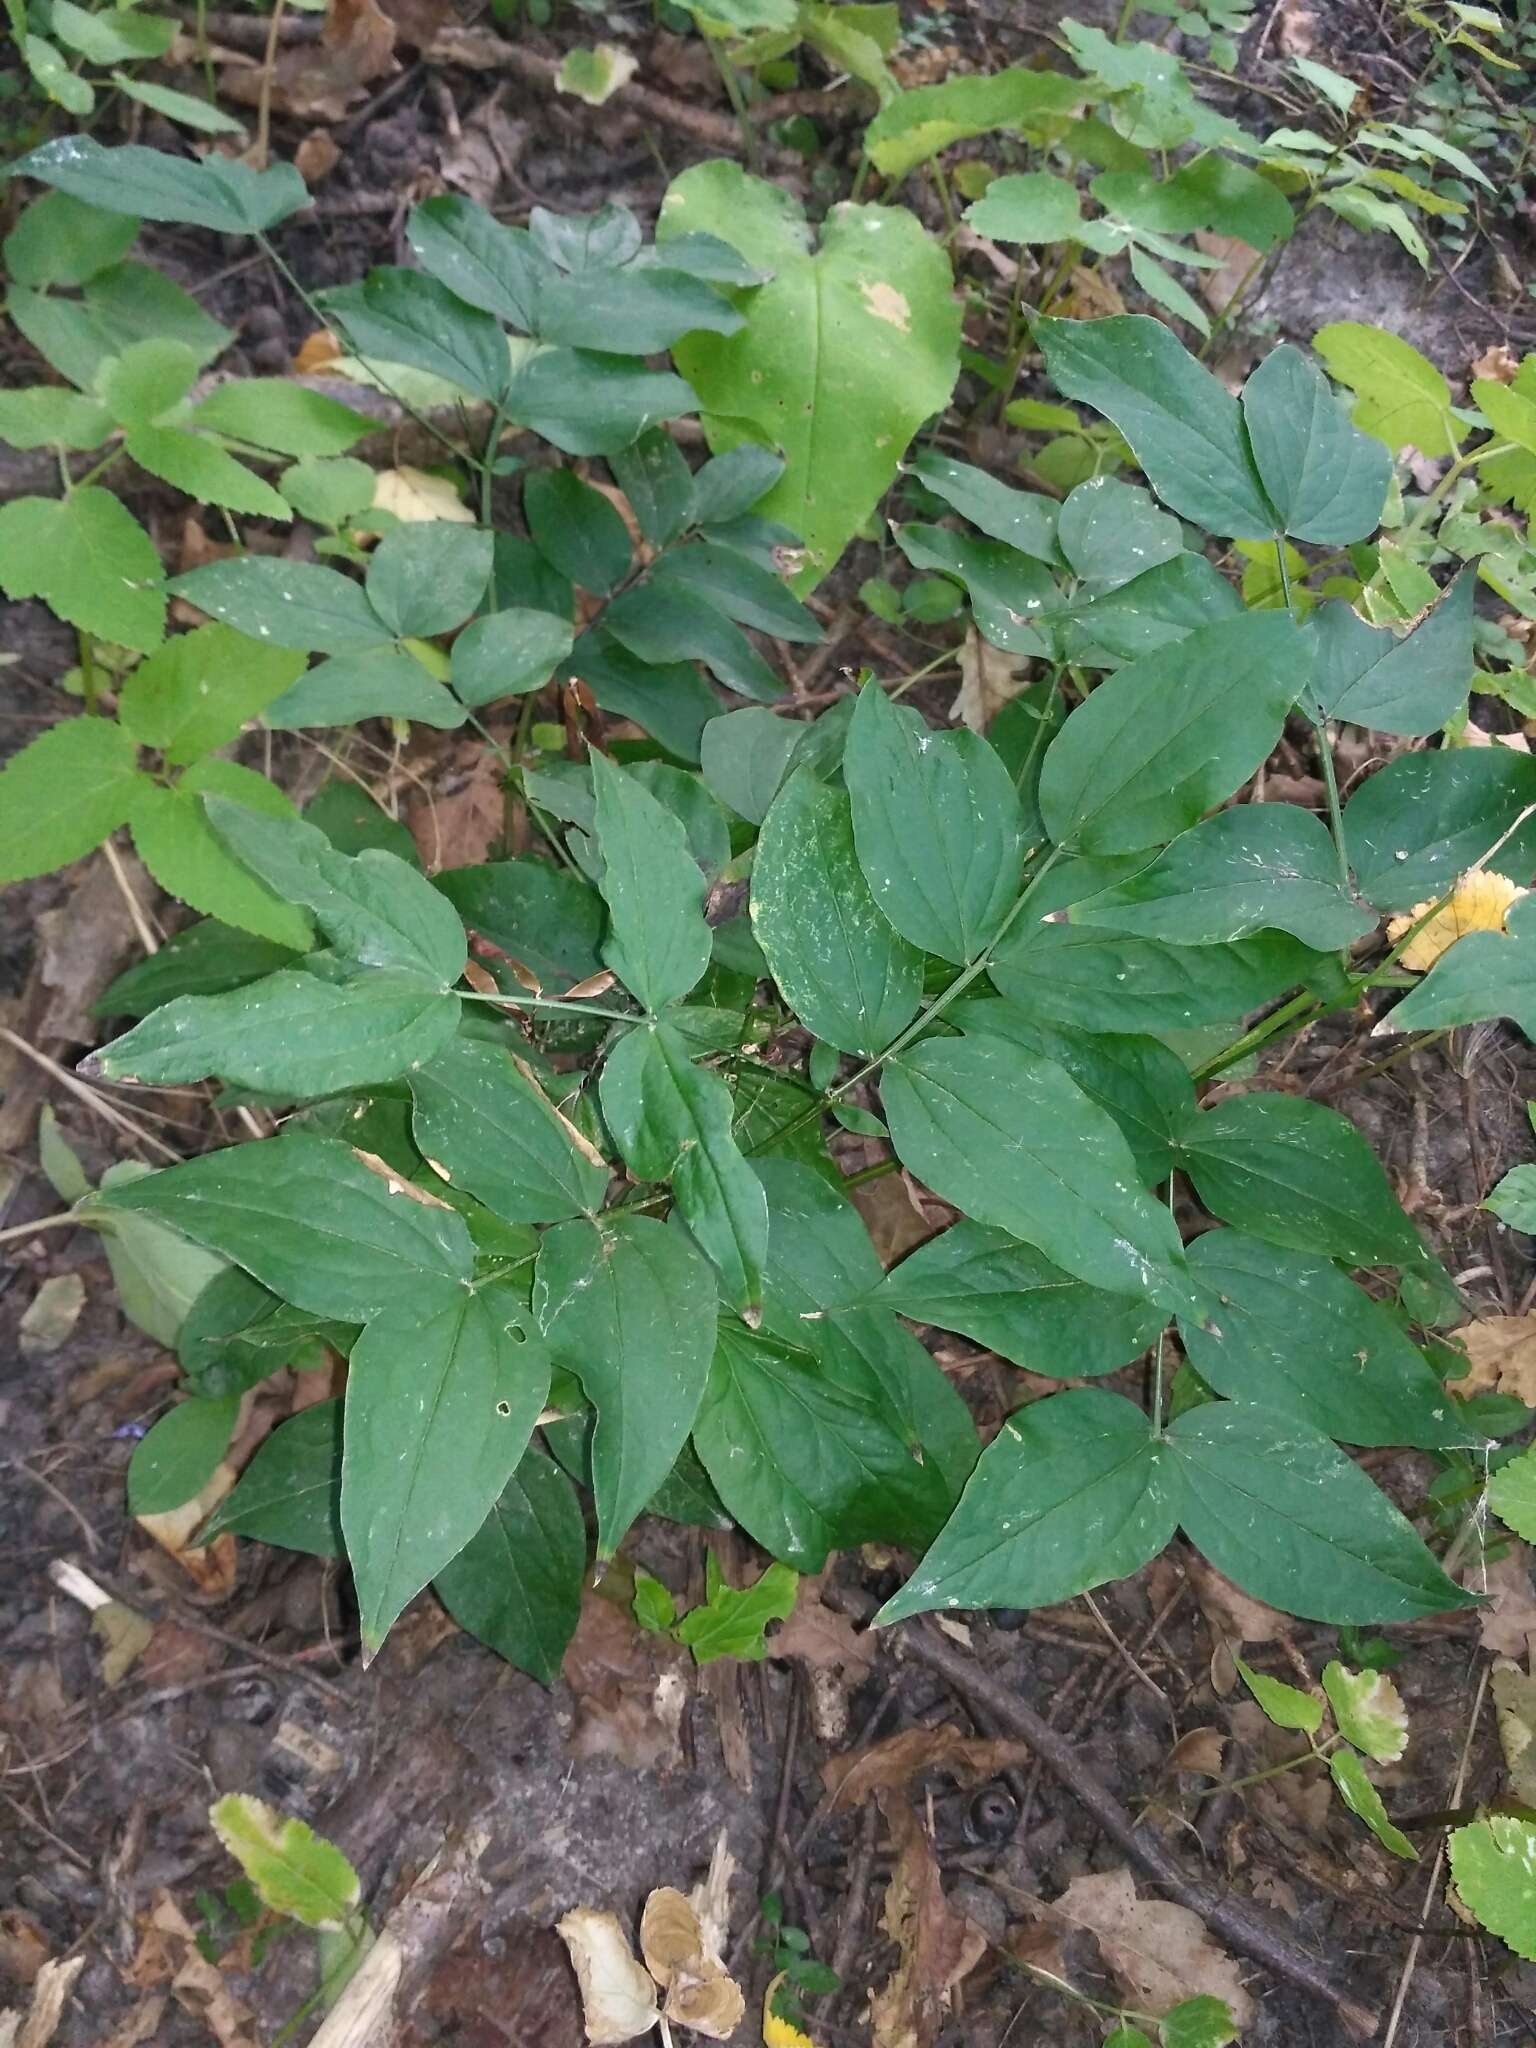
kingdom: Plantae
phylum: Tracheophyta
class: Magnoliopsida
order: Fabales
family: Fabaceae
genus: Lathyrus
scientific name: Lathyrus vernus
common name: Spring pea
